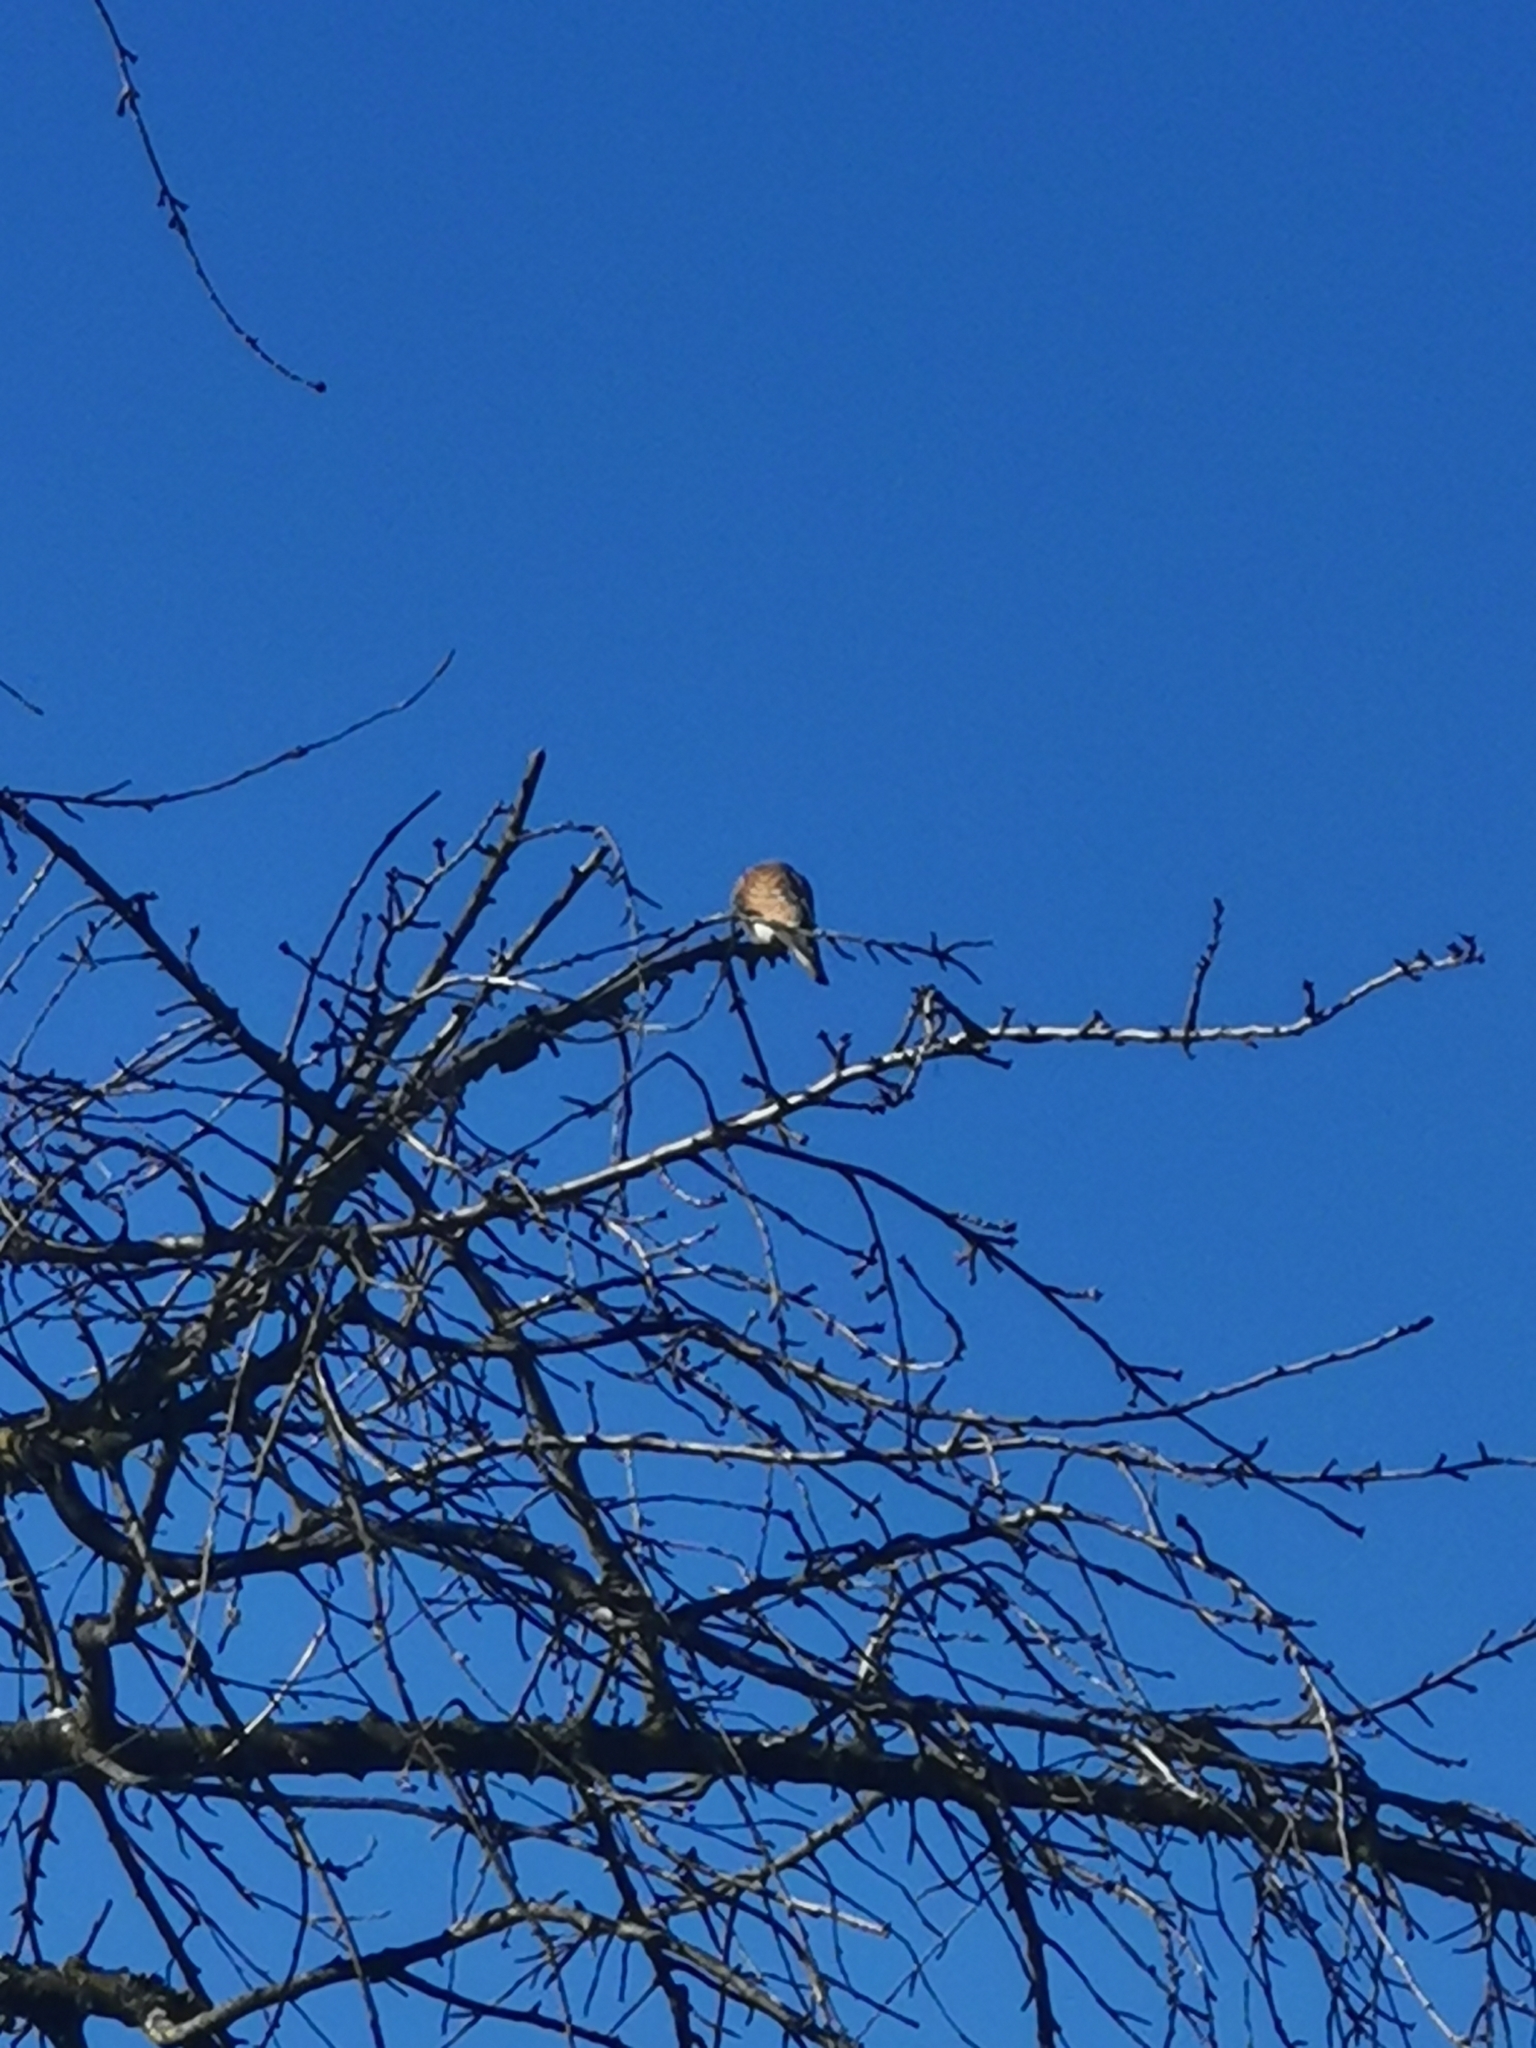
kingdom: Animalia
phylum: Chordata
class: Aves
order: Falconiformes
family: Falconidae
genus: Falco
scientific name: Falco tinnunculus
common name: Common kestrel
